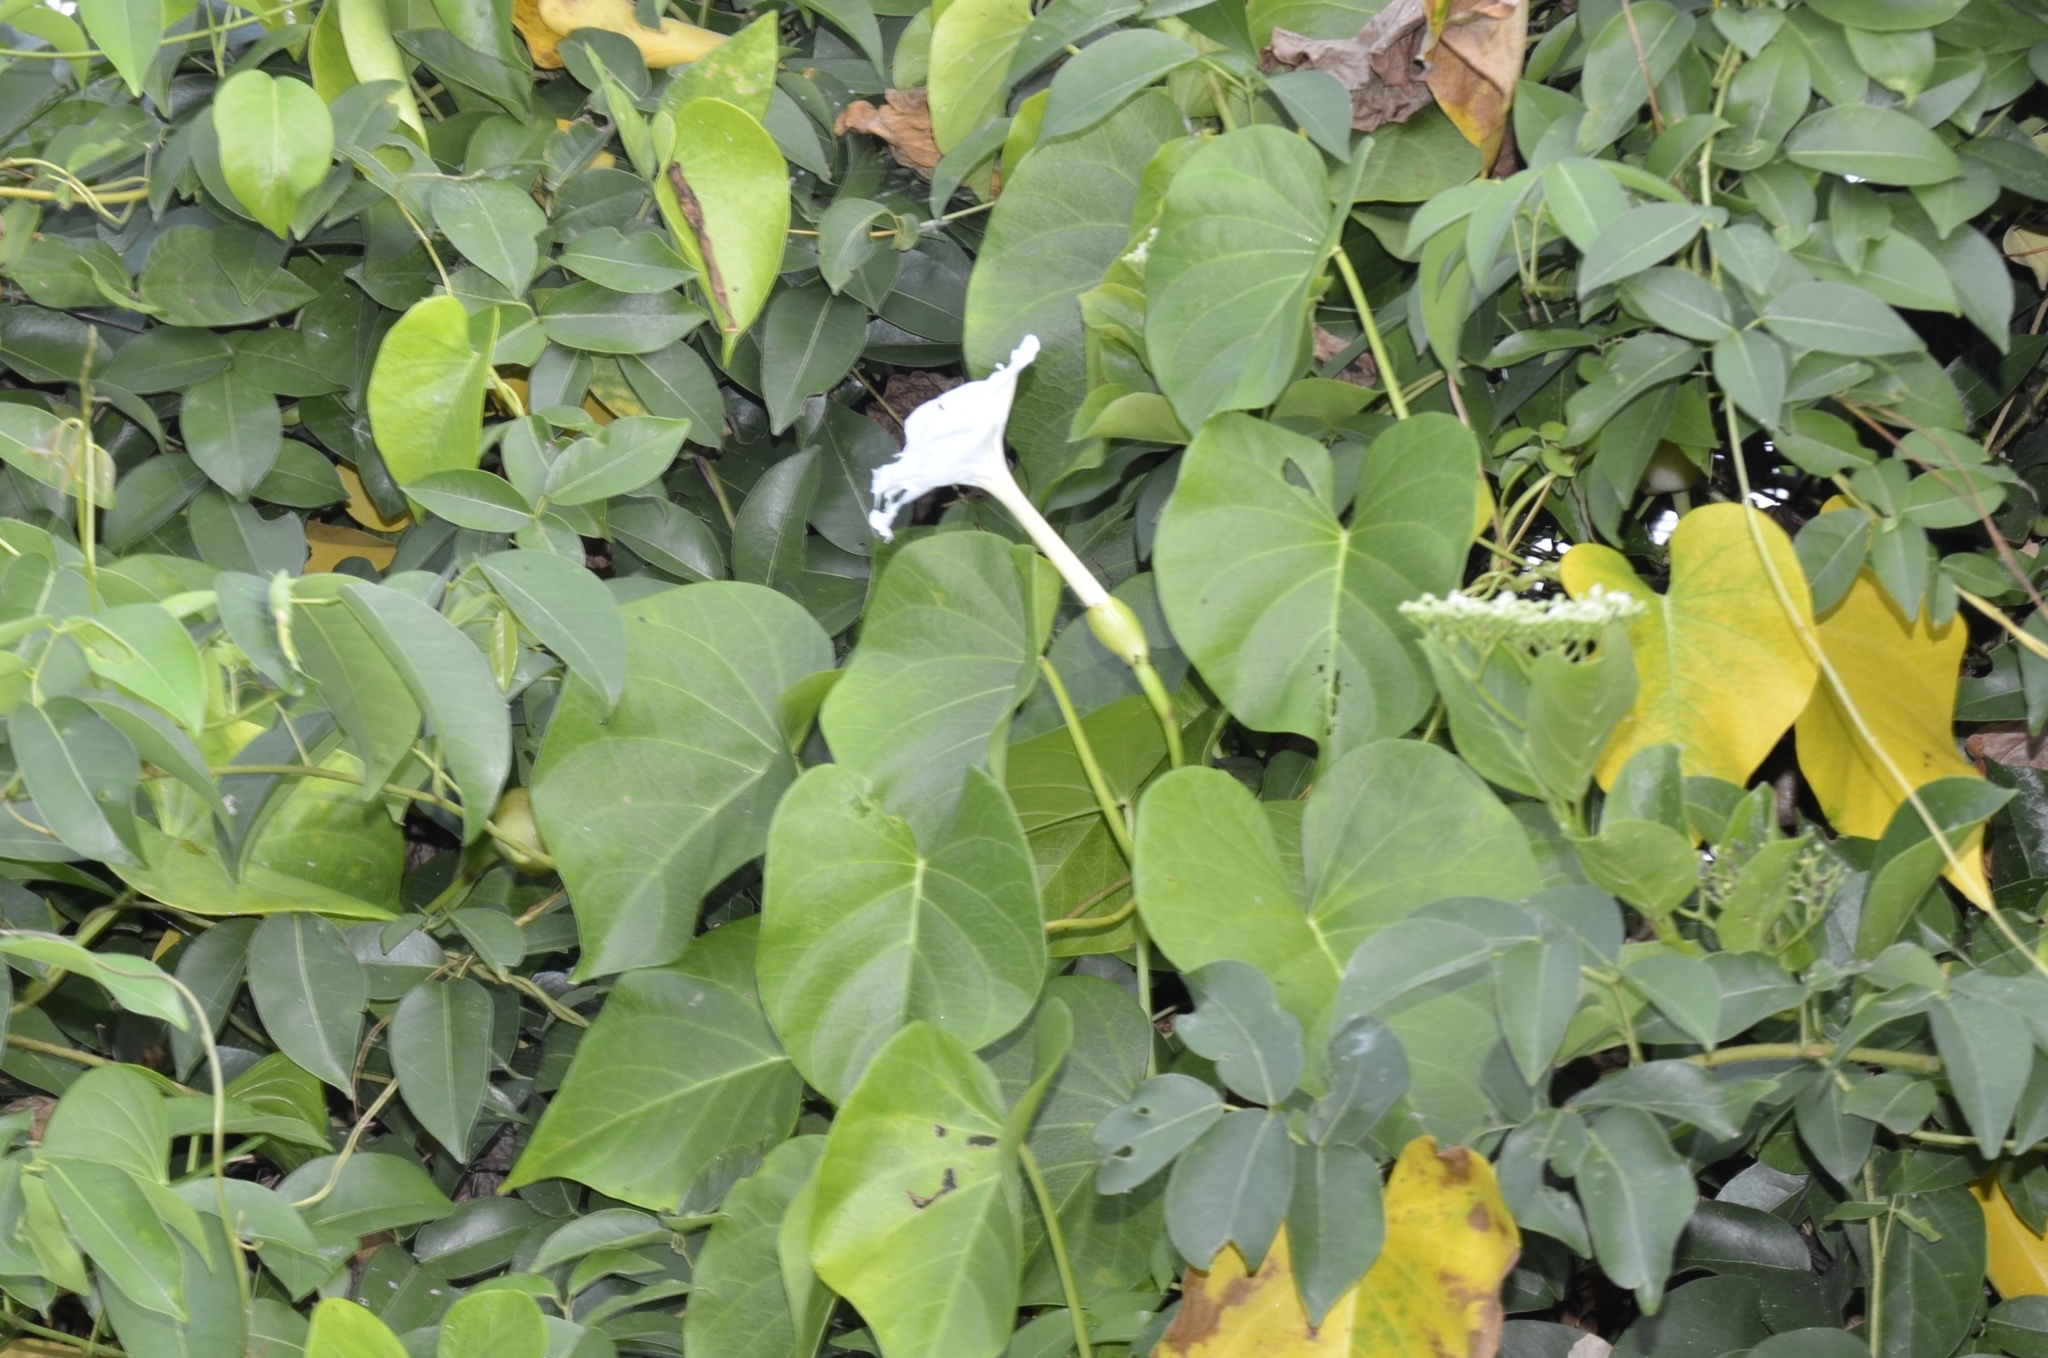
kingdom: Plantae
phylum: Tracheophyta
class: Magnoliopsida
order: Solanales
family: Convolvulaceae
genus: Ipomoea
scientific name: Ipomoea violacea
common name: Beach moonflower
